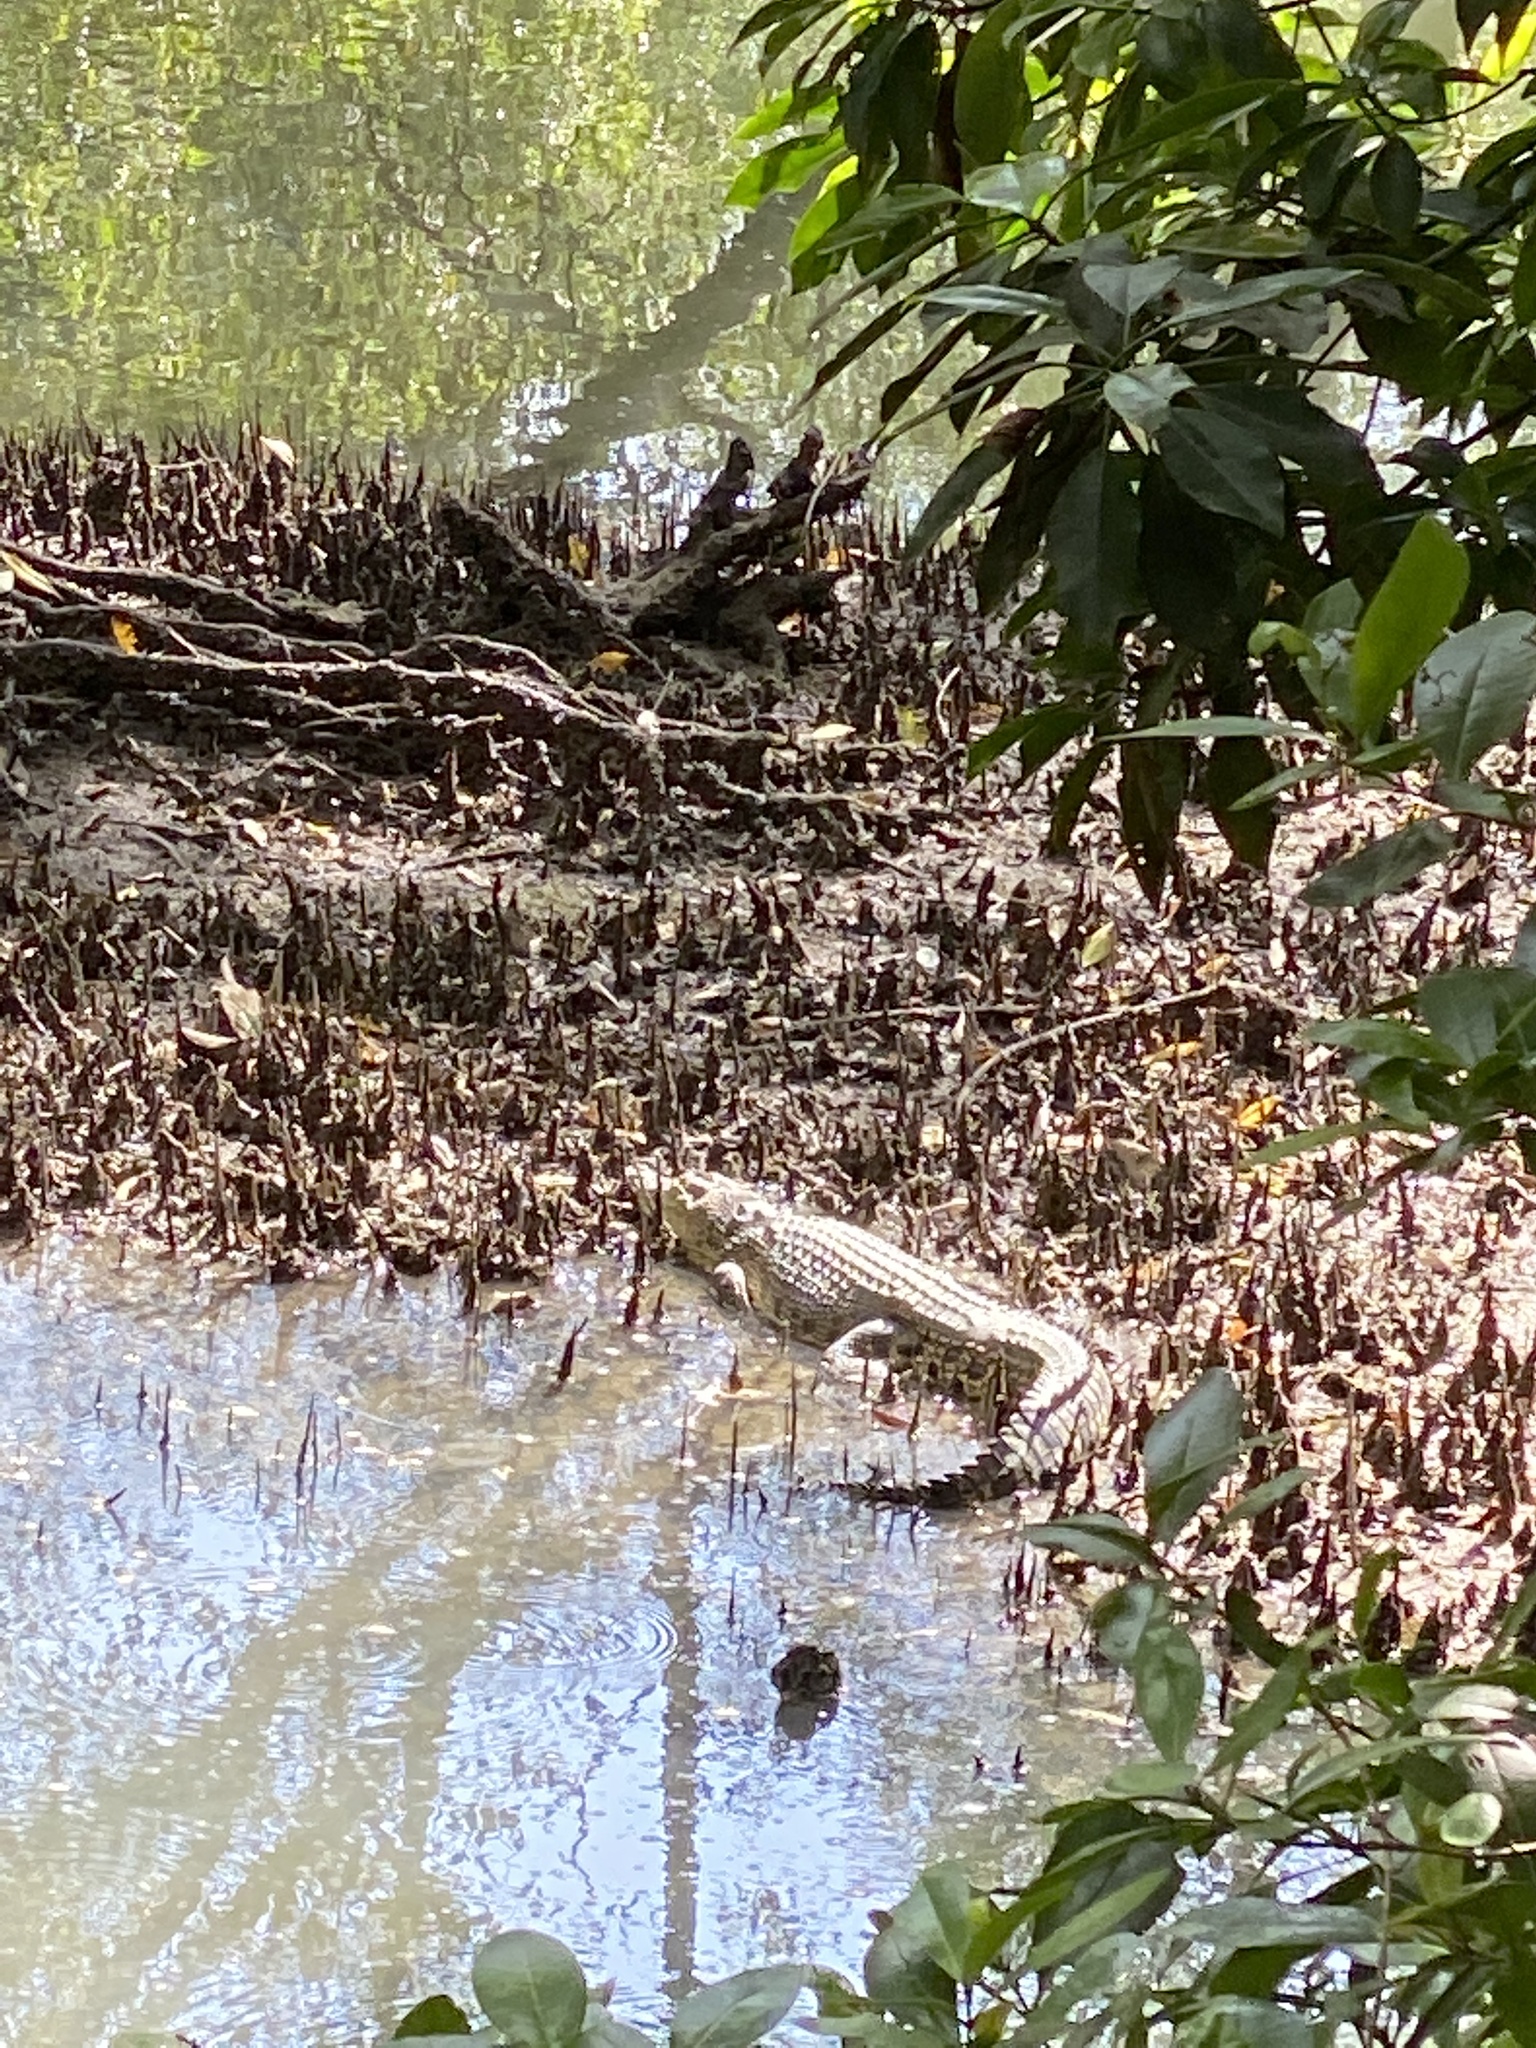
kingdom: Animalia
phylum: Chordata
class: Crocodylia
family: Crocodylidae
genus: Crocodylus
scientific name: Crocodylus porosus
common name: Saltwater crocodile
